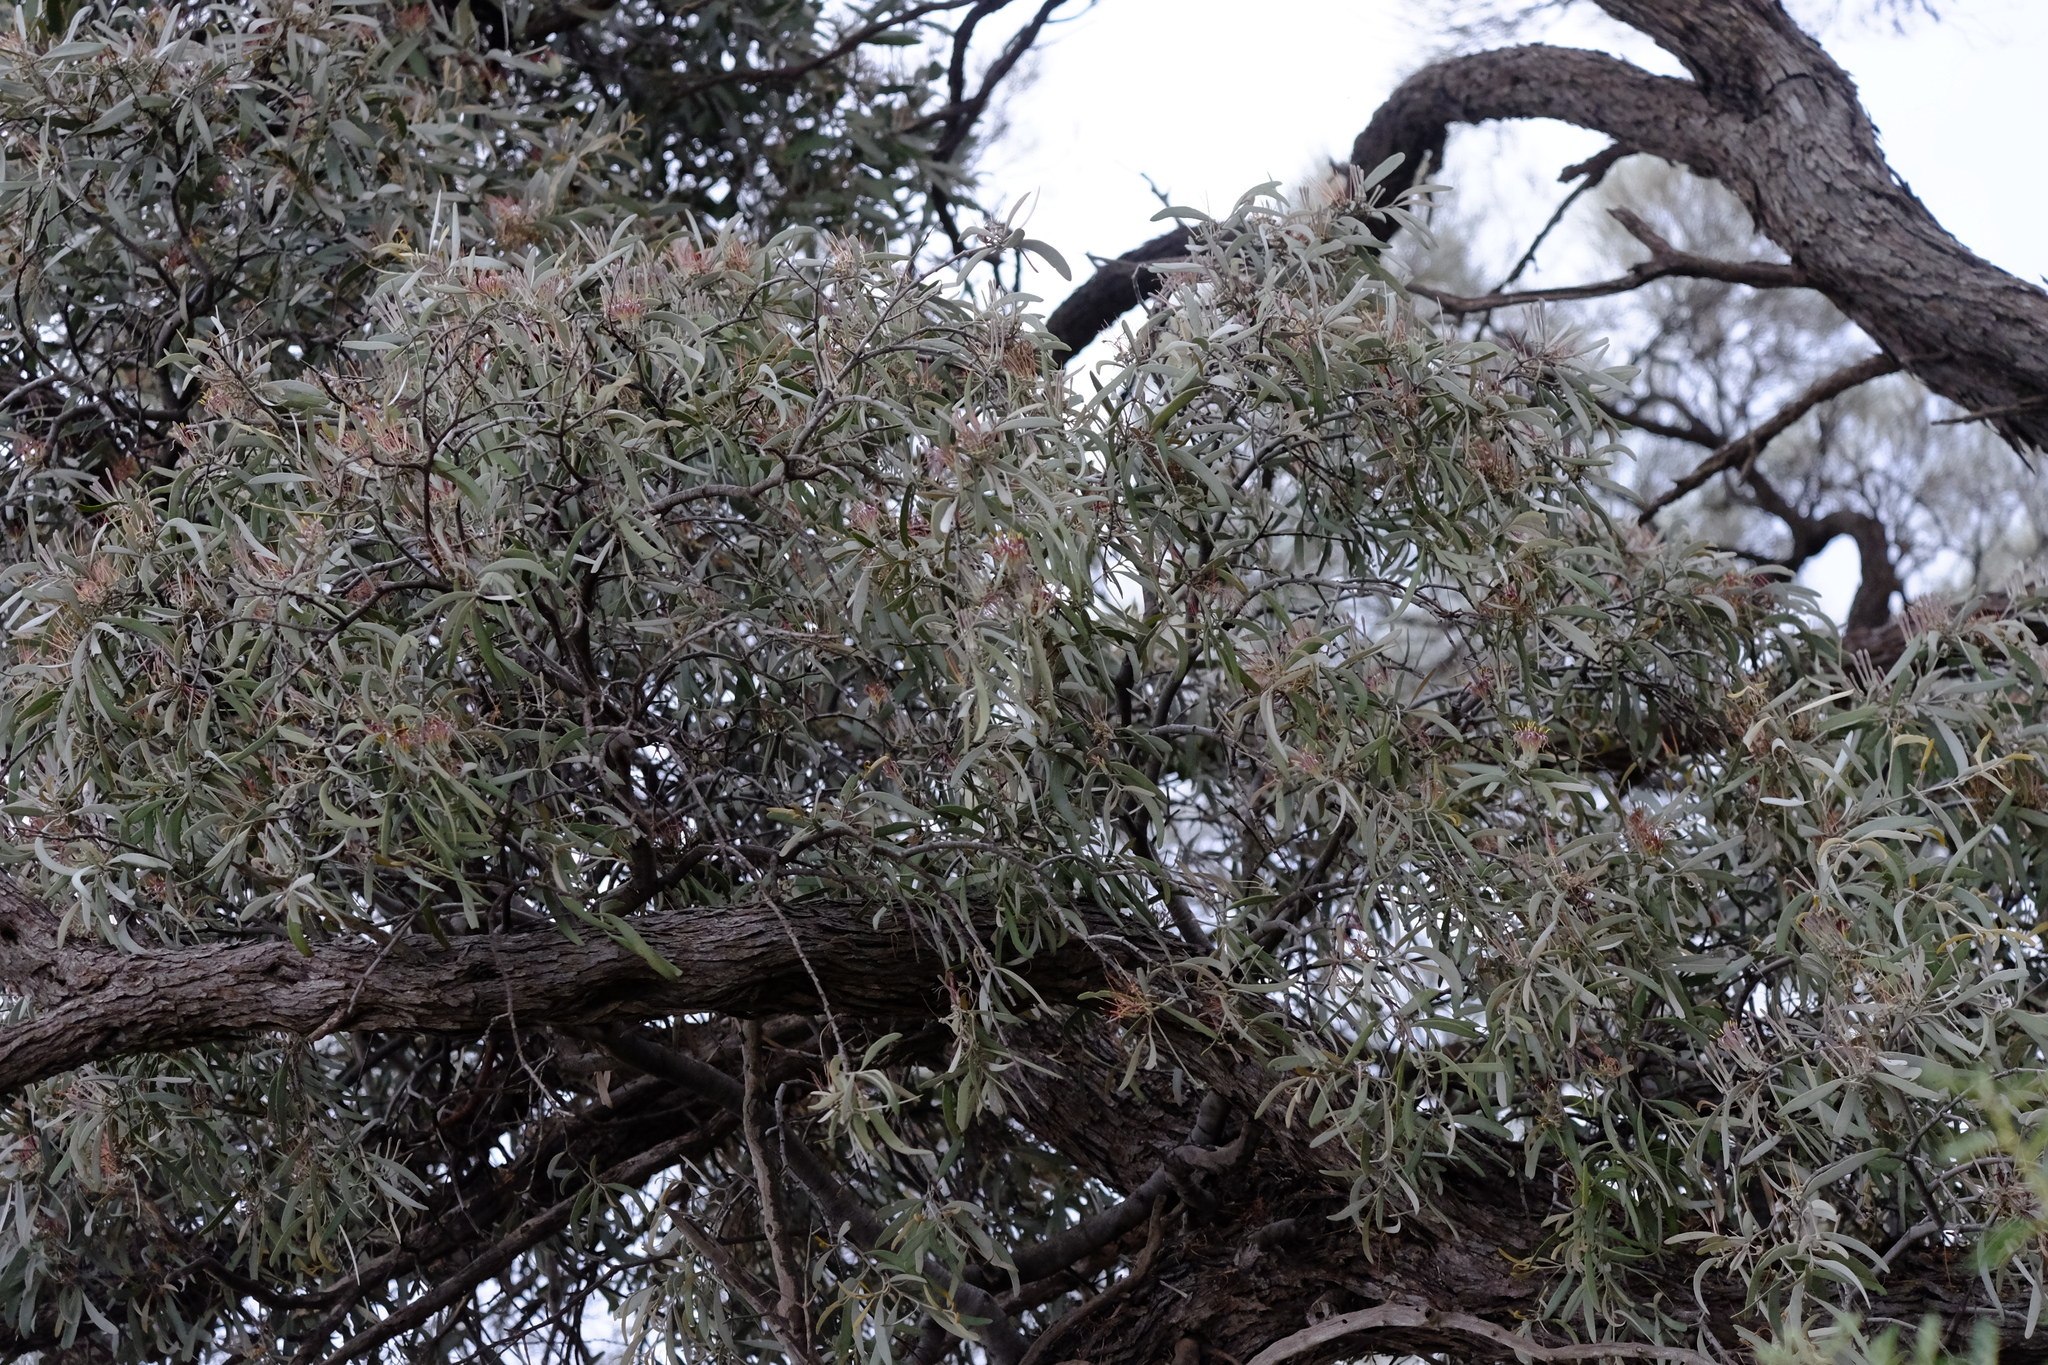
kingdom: Plantae
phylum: Tracheophyta
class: Magnoliopsida
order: Santalales
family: Loranthaceae
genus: Amyema
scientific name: Amyema quandang
